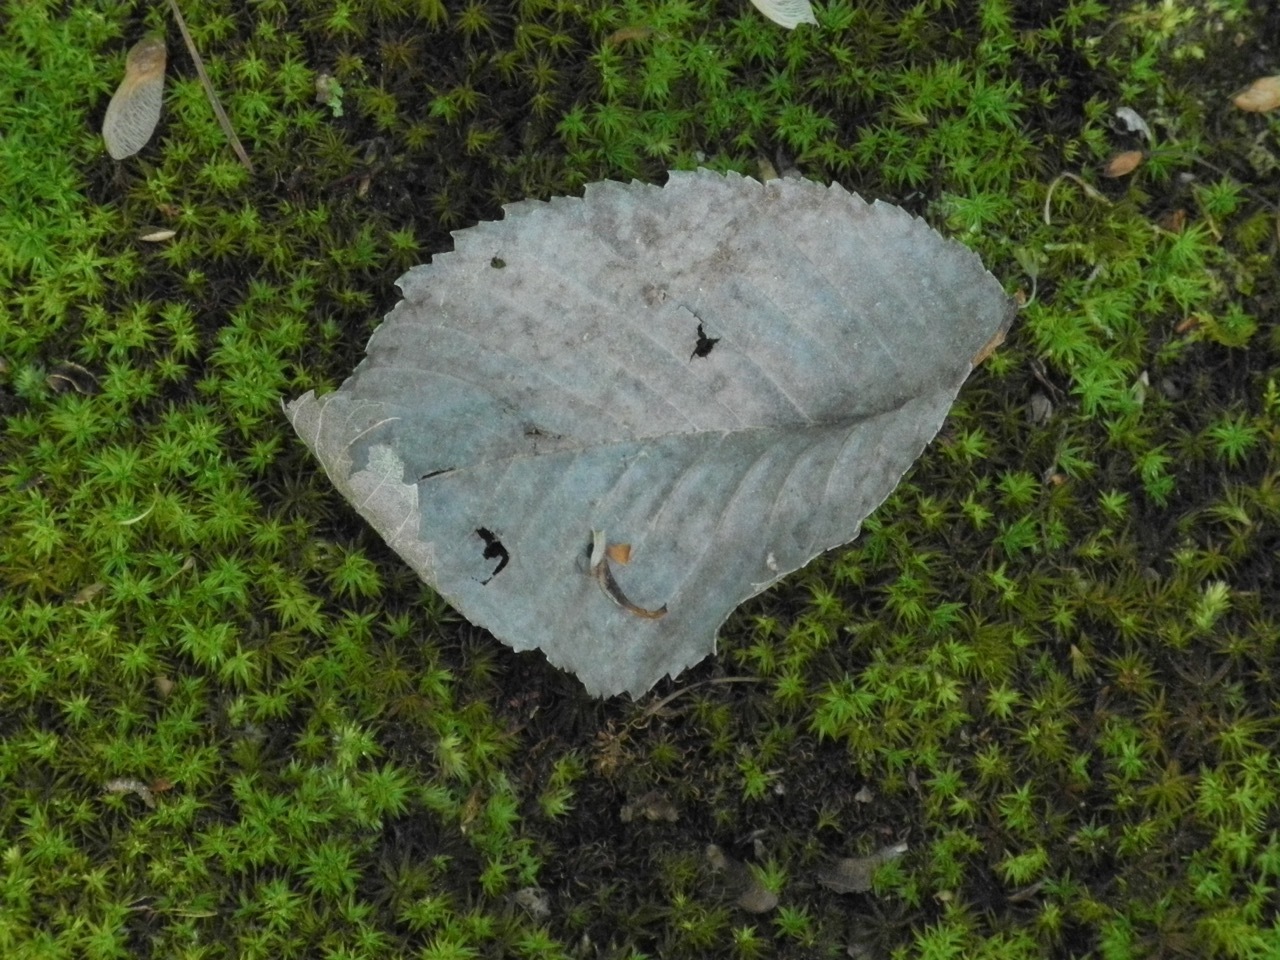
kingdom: Plantae
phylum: Tracheophyta
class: Magnoliopsida
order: Rosales
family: Ulmaceae
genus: Ulmus
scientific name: Ulmus rubra
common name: Slippery elm
